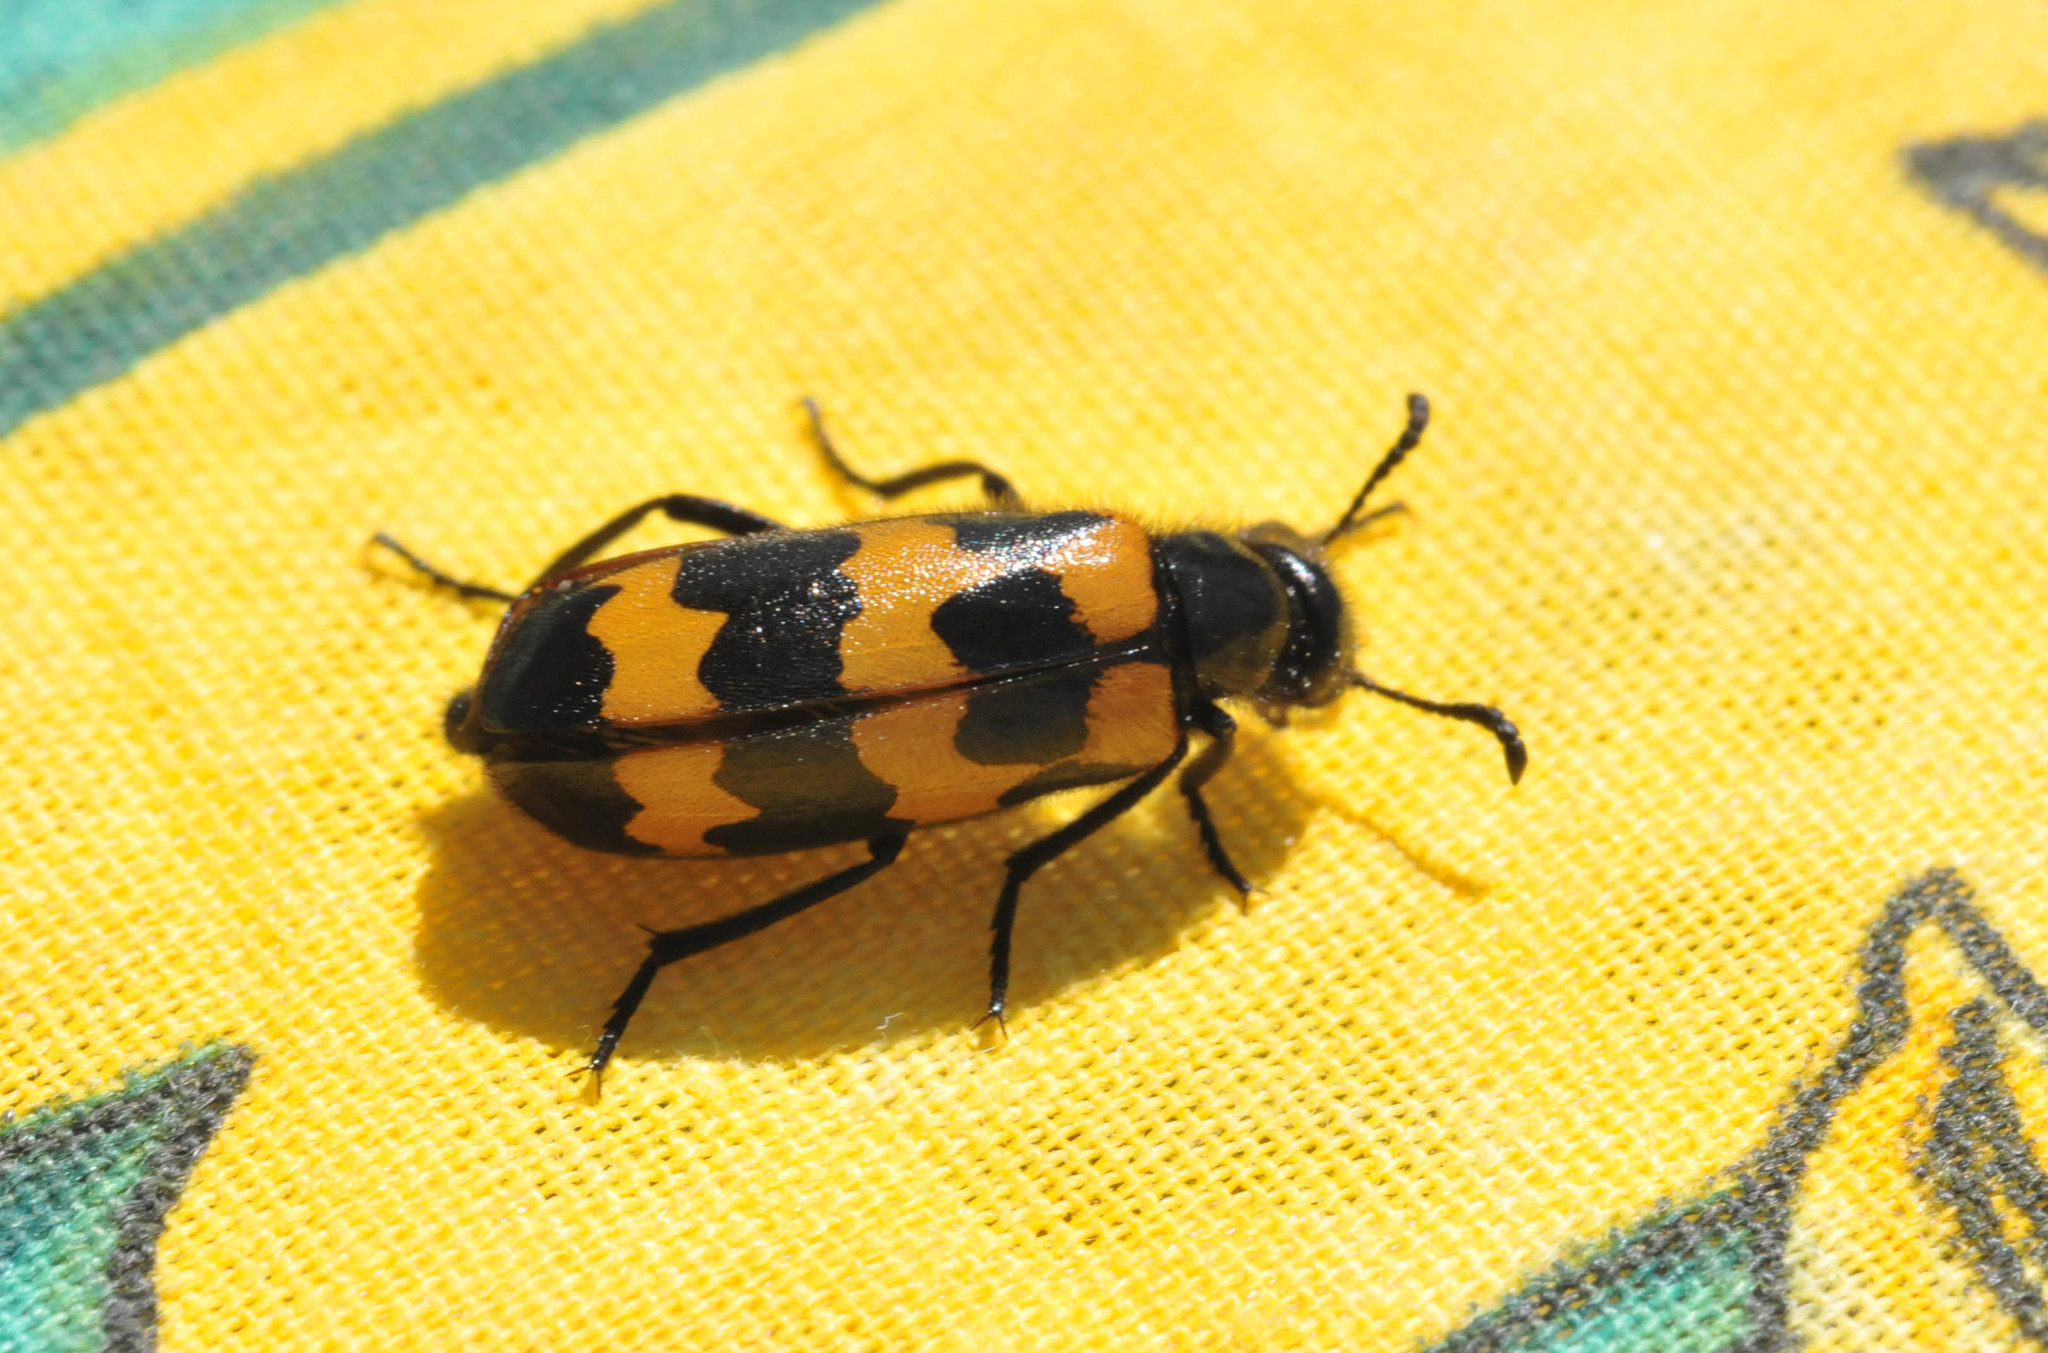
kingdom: Animalia
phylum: Arthropoda
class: Insecta
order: Coleoptera
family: Meloidae
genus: Mylabris
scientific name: Mylabris variabilis
